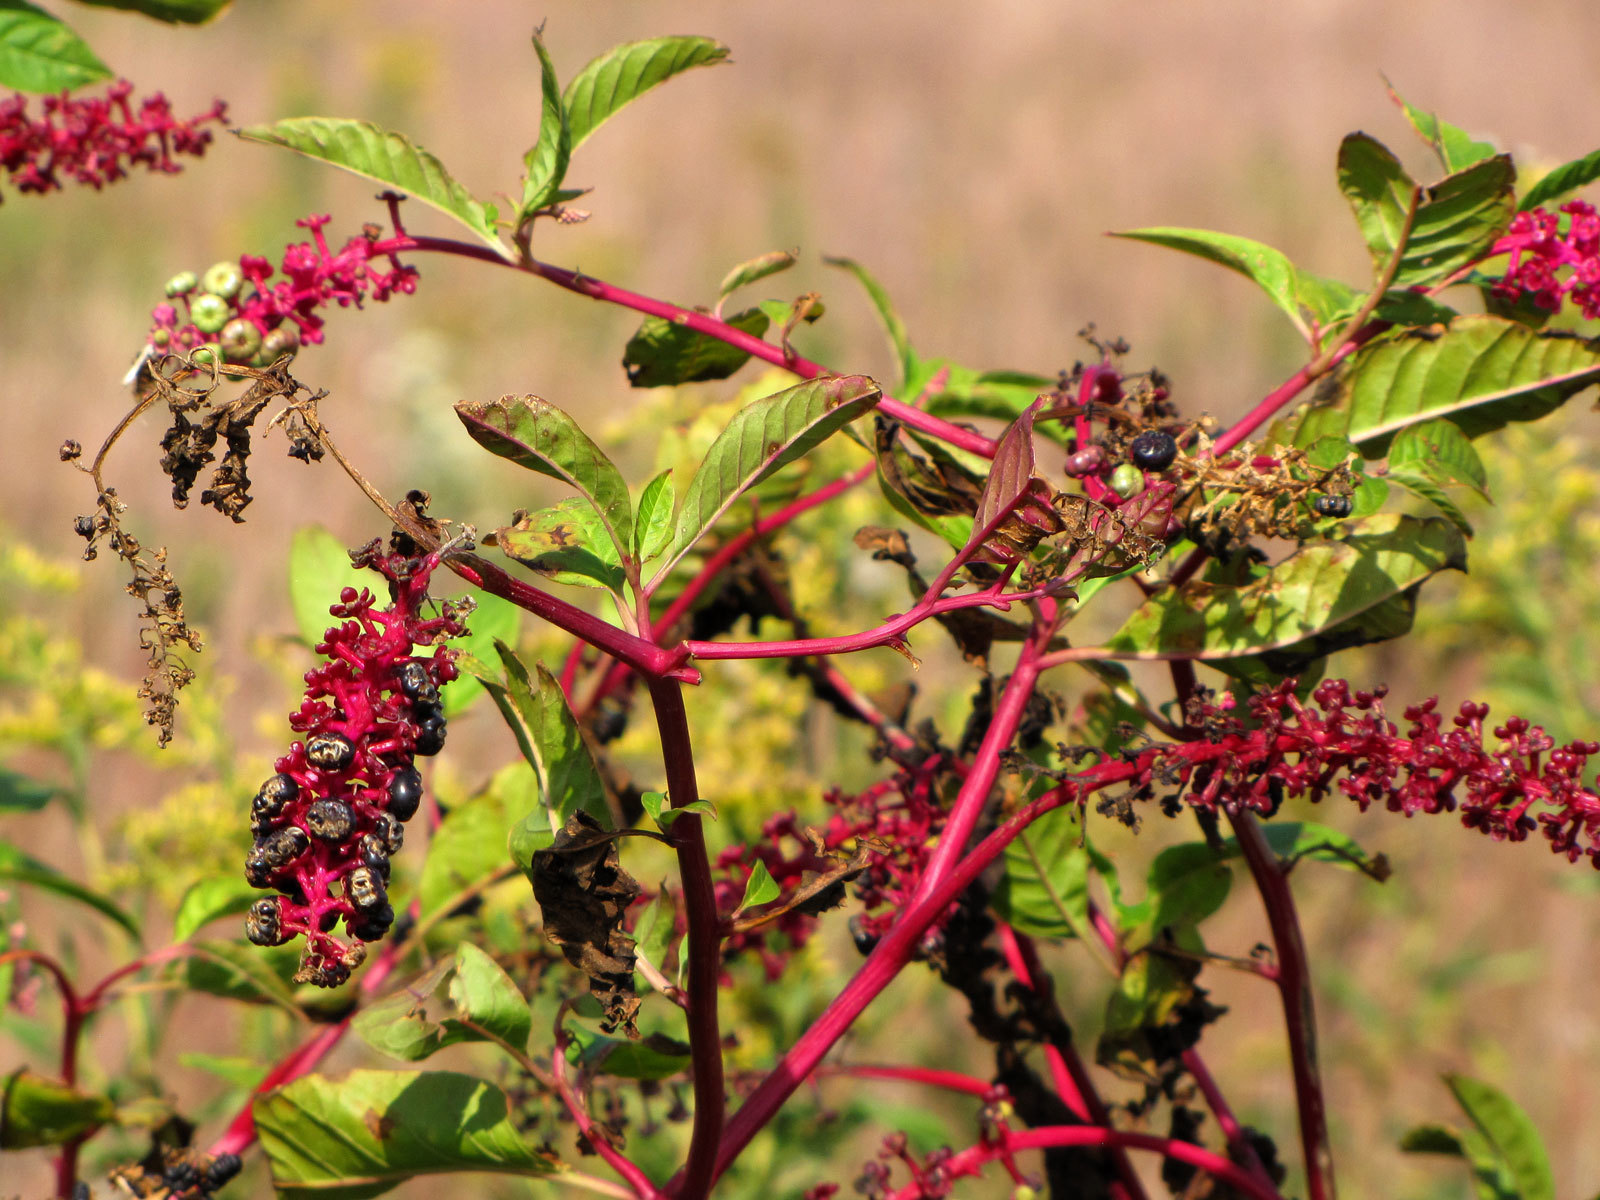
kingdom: Plantae
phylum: Tracheophyta
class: Magnoliopsida
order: Caryophyllales
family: Phytolaccaceae
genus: Phytolacca
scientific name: Phytolacca americana
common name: American pokeweed
